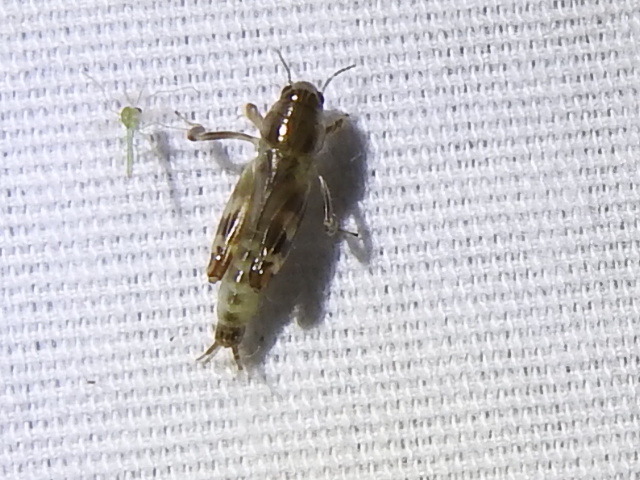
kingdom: Animalia
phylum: Arthropoda
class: Insecta
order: Orthoptera
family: Tridactylidae
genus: Neotridactylus
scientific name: Neotridactylus apicialis
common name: Larger pygmy locust
